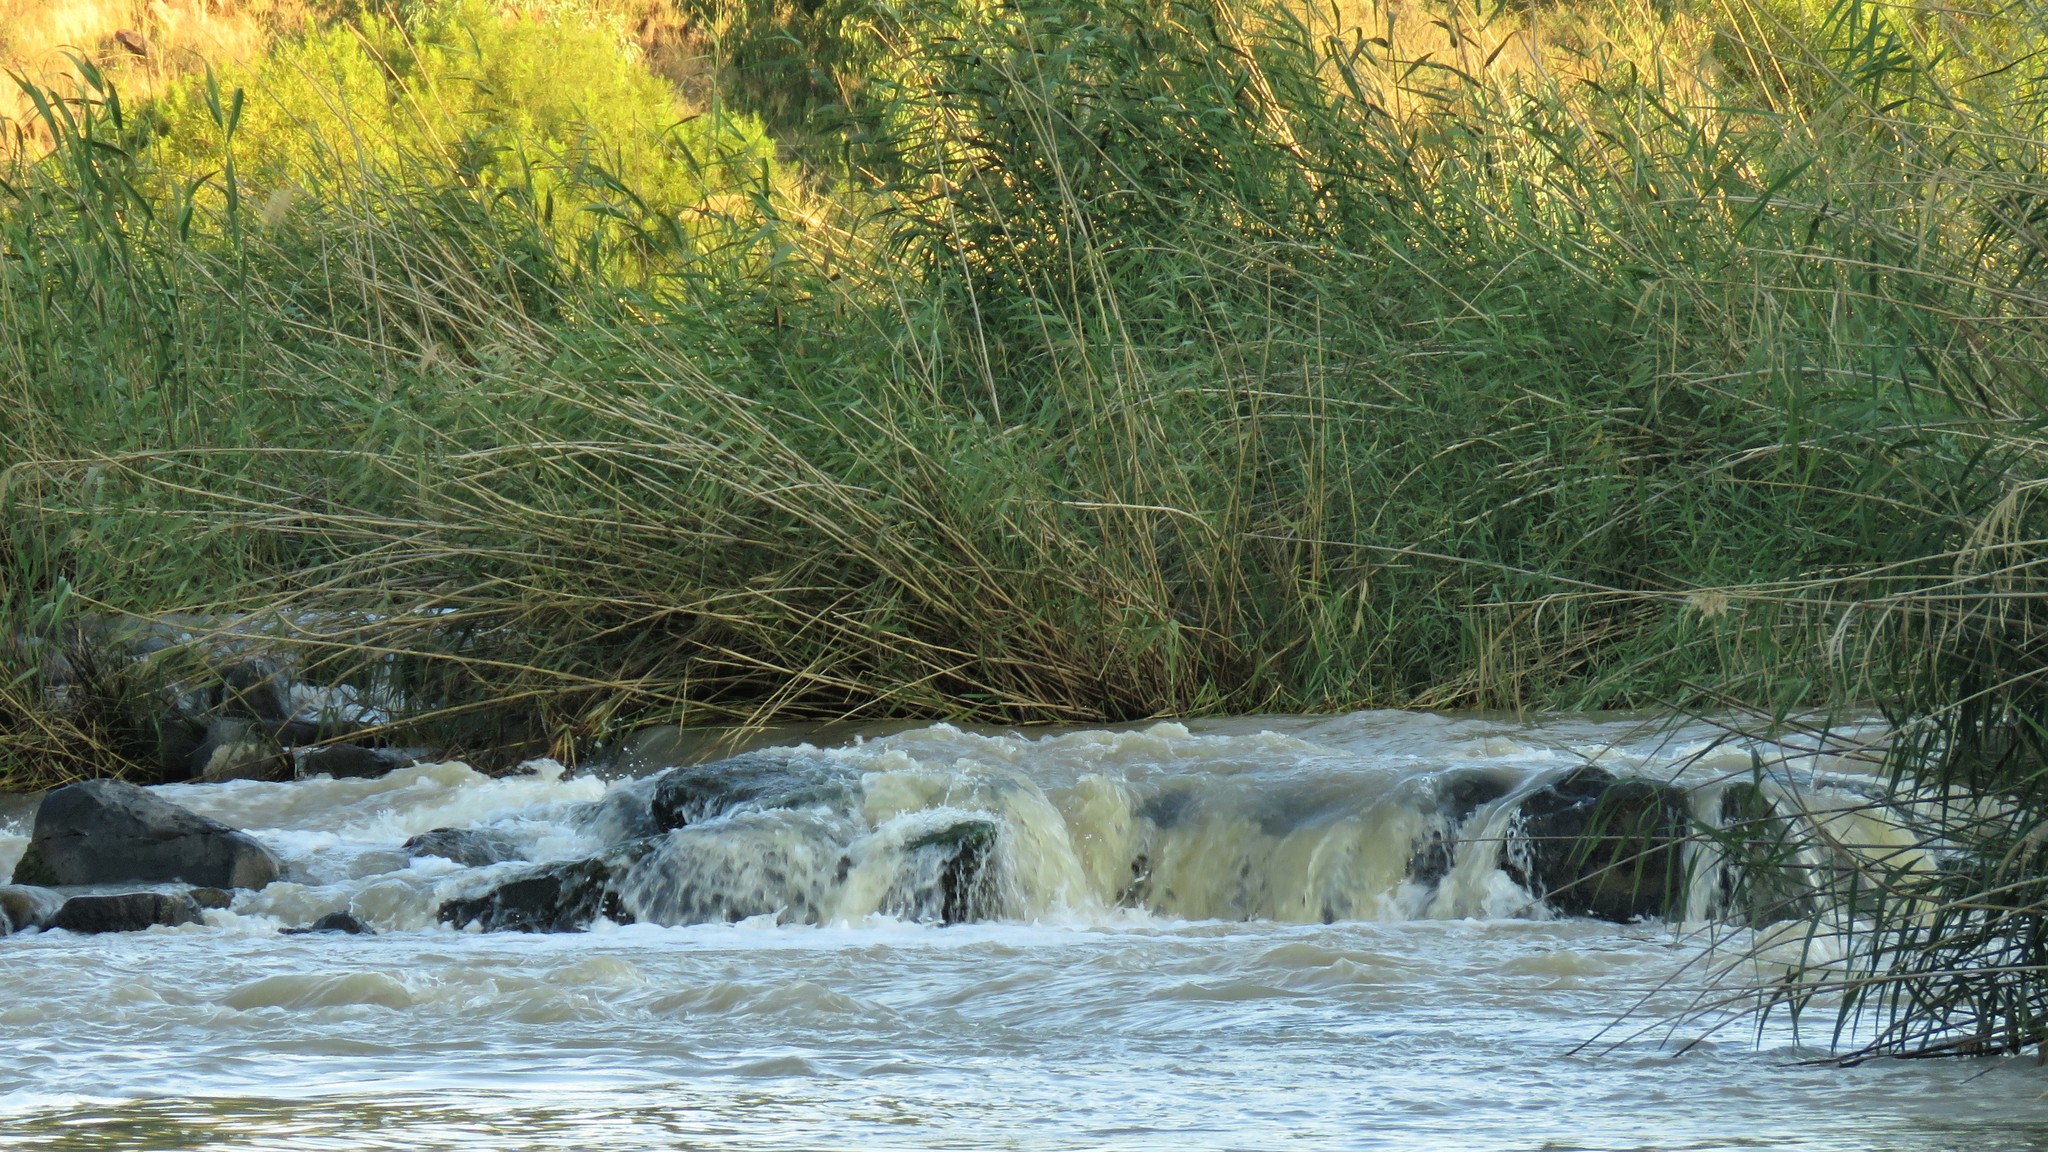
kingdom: Plantae
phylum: Tracheophyta
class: Liliopsida
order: Poales
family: Poaceae
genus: Phragmites
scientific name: Phragmites australis
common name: Common reed
